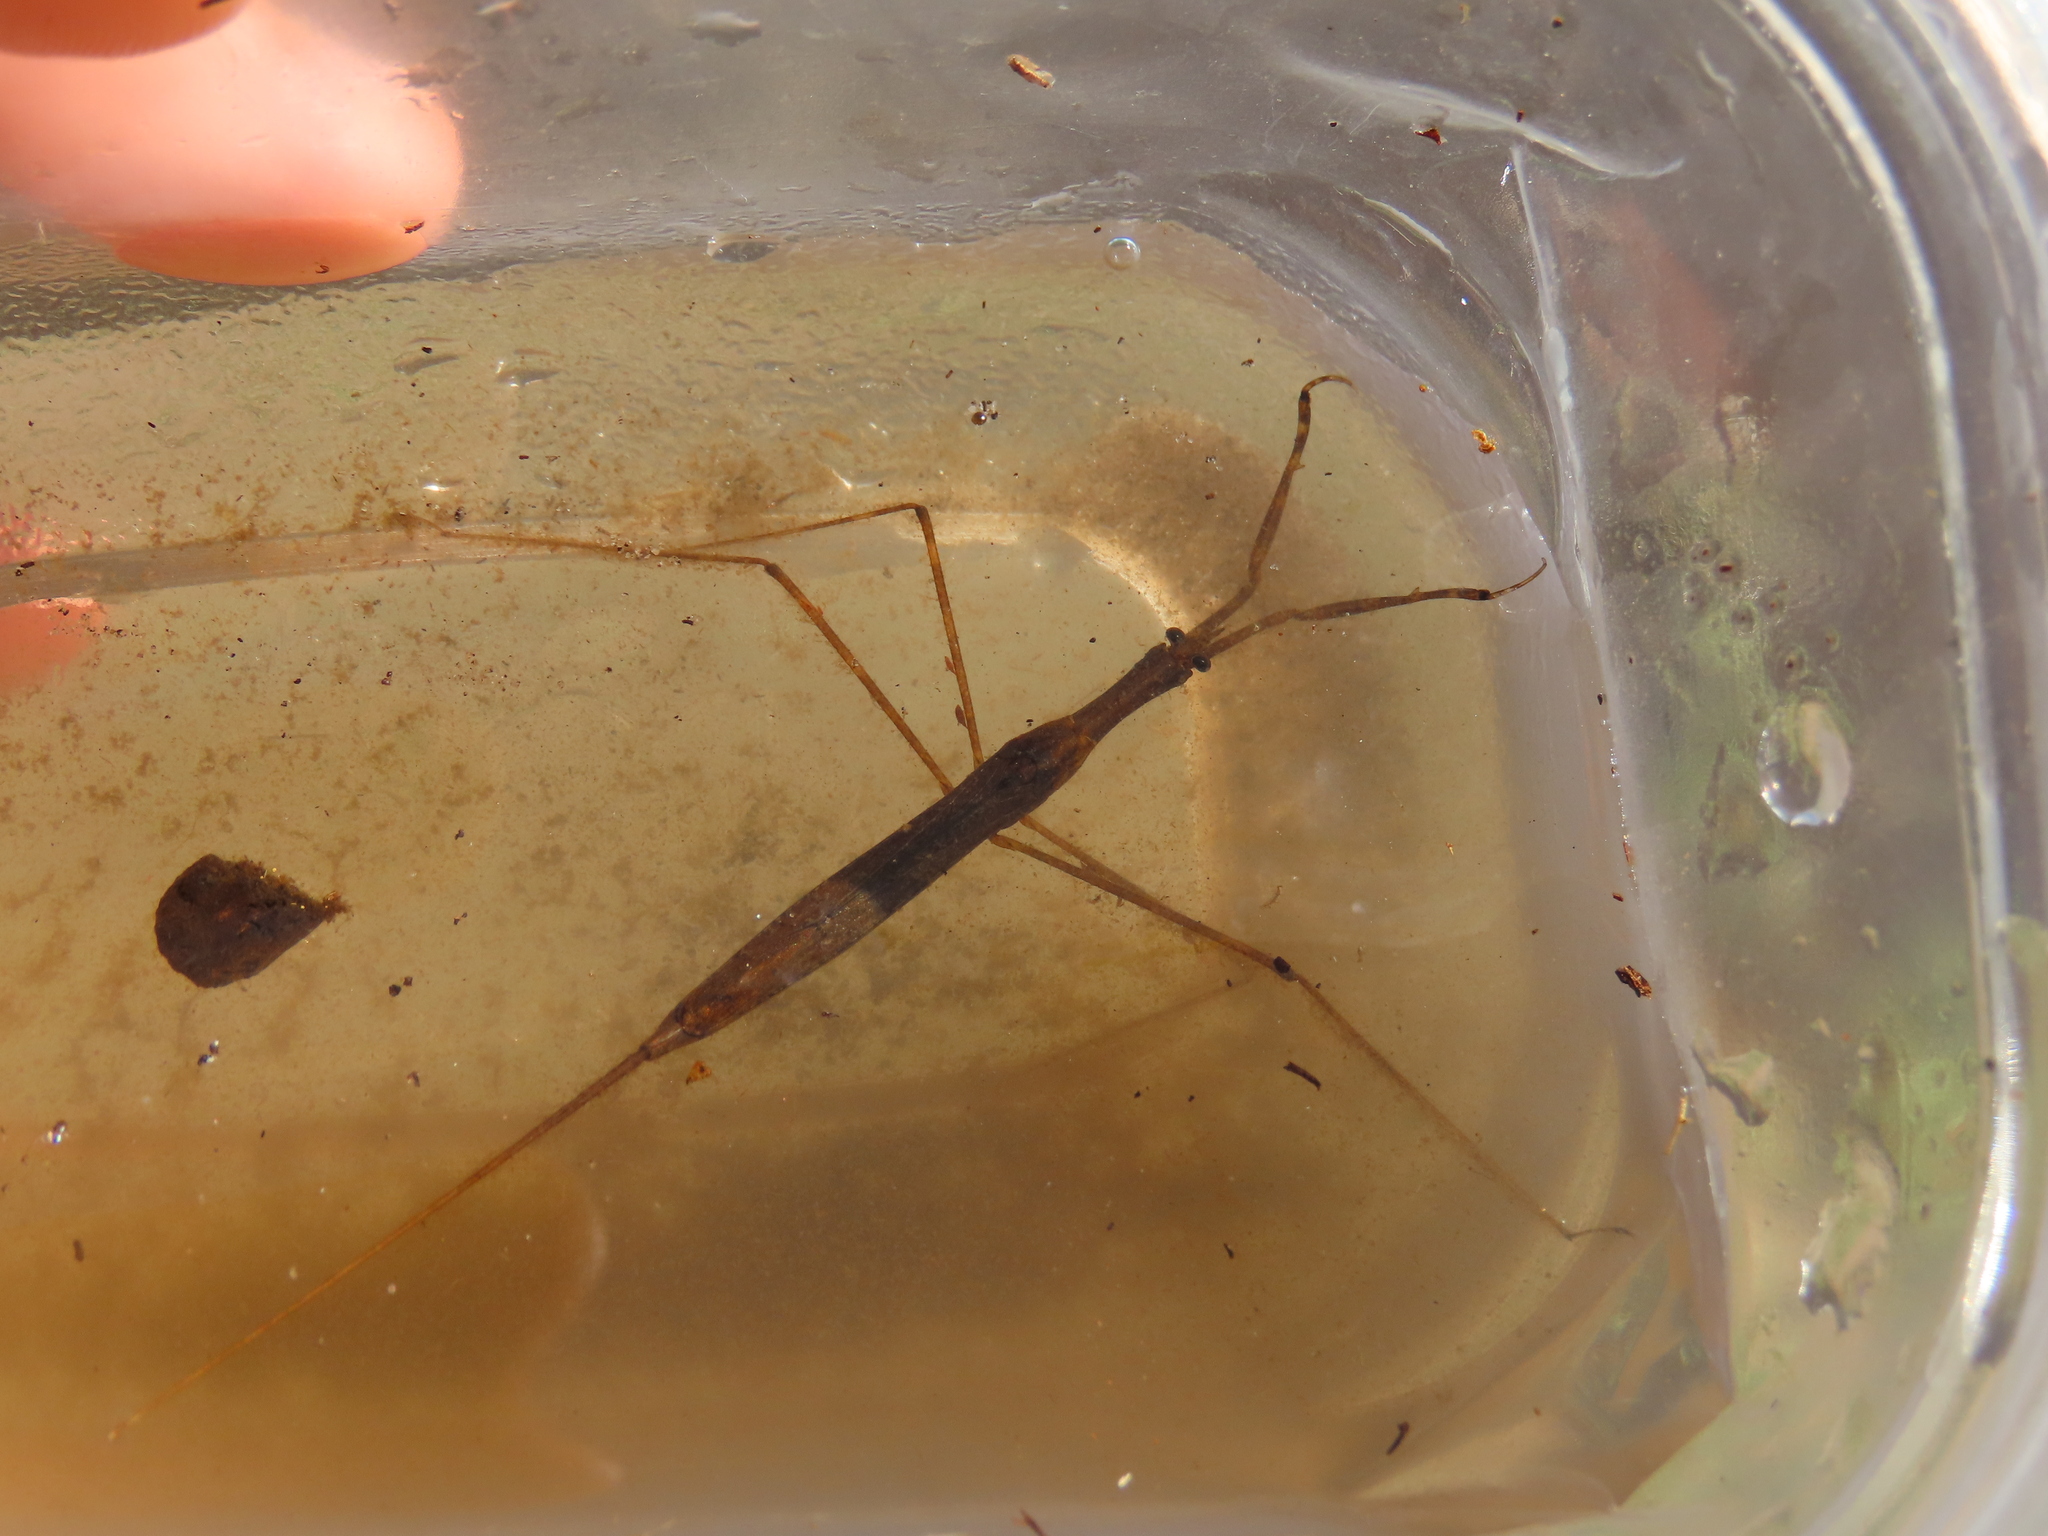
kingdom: Animalia
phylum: Arthropoda
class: Insecta
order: Hemiptera
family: Nepidae
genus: Ranatra
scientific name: Ranatra
